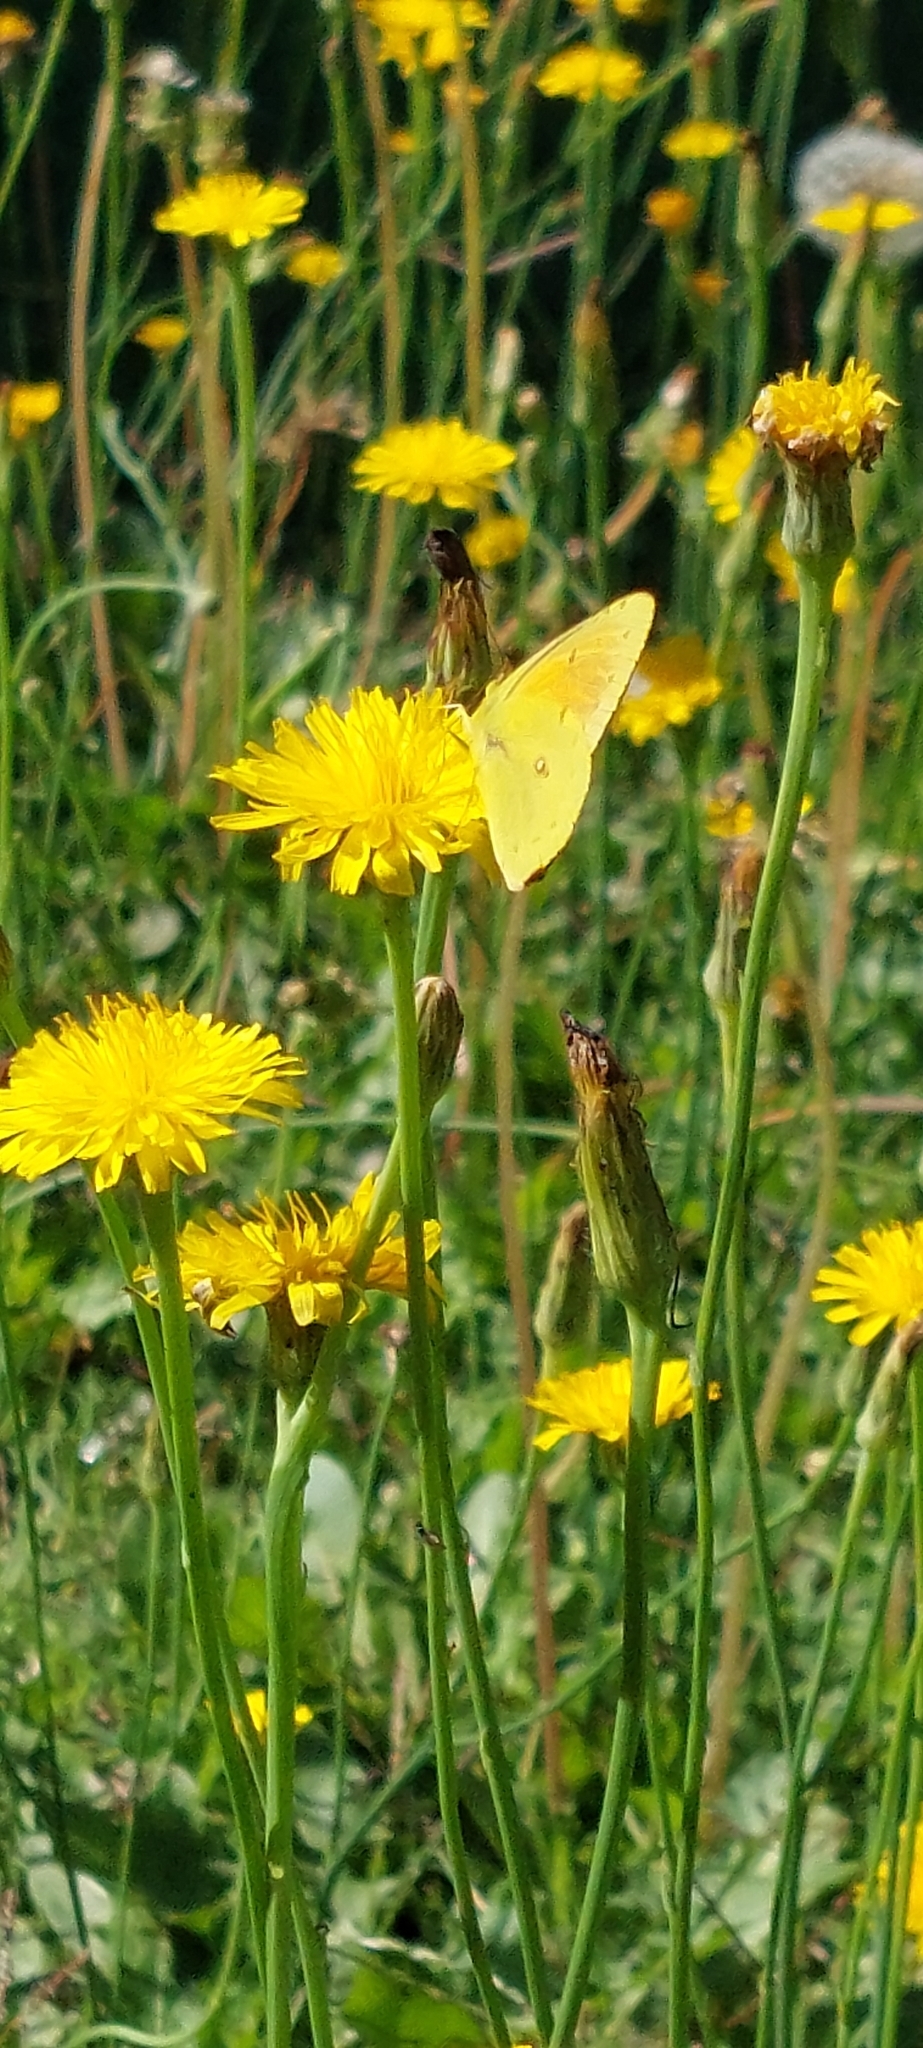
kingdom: Animalia
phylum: Arthropoda
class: Insecta
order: Lepidoptera
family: Pieridae
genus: Colias
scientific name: Colias lesbia
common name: Lesbia clouded yellow
